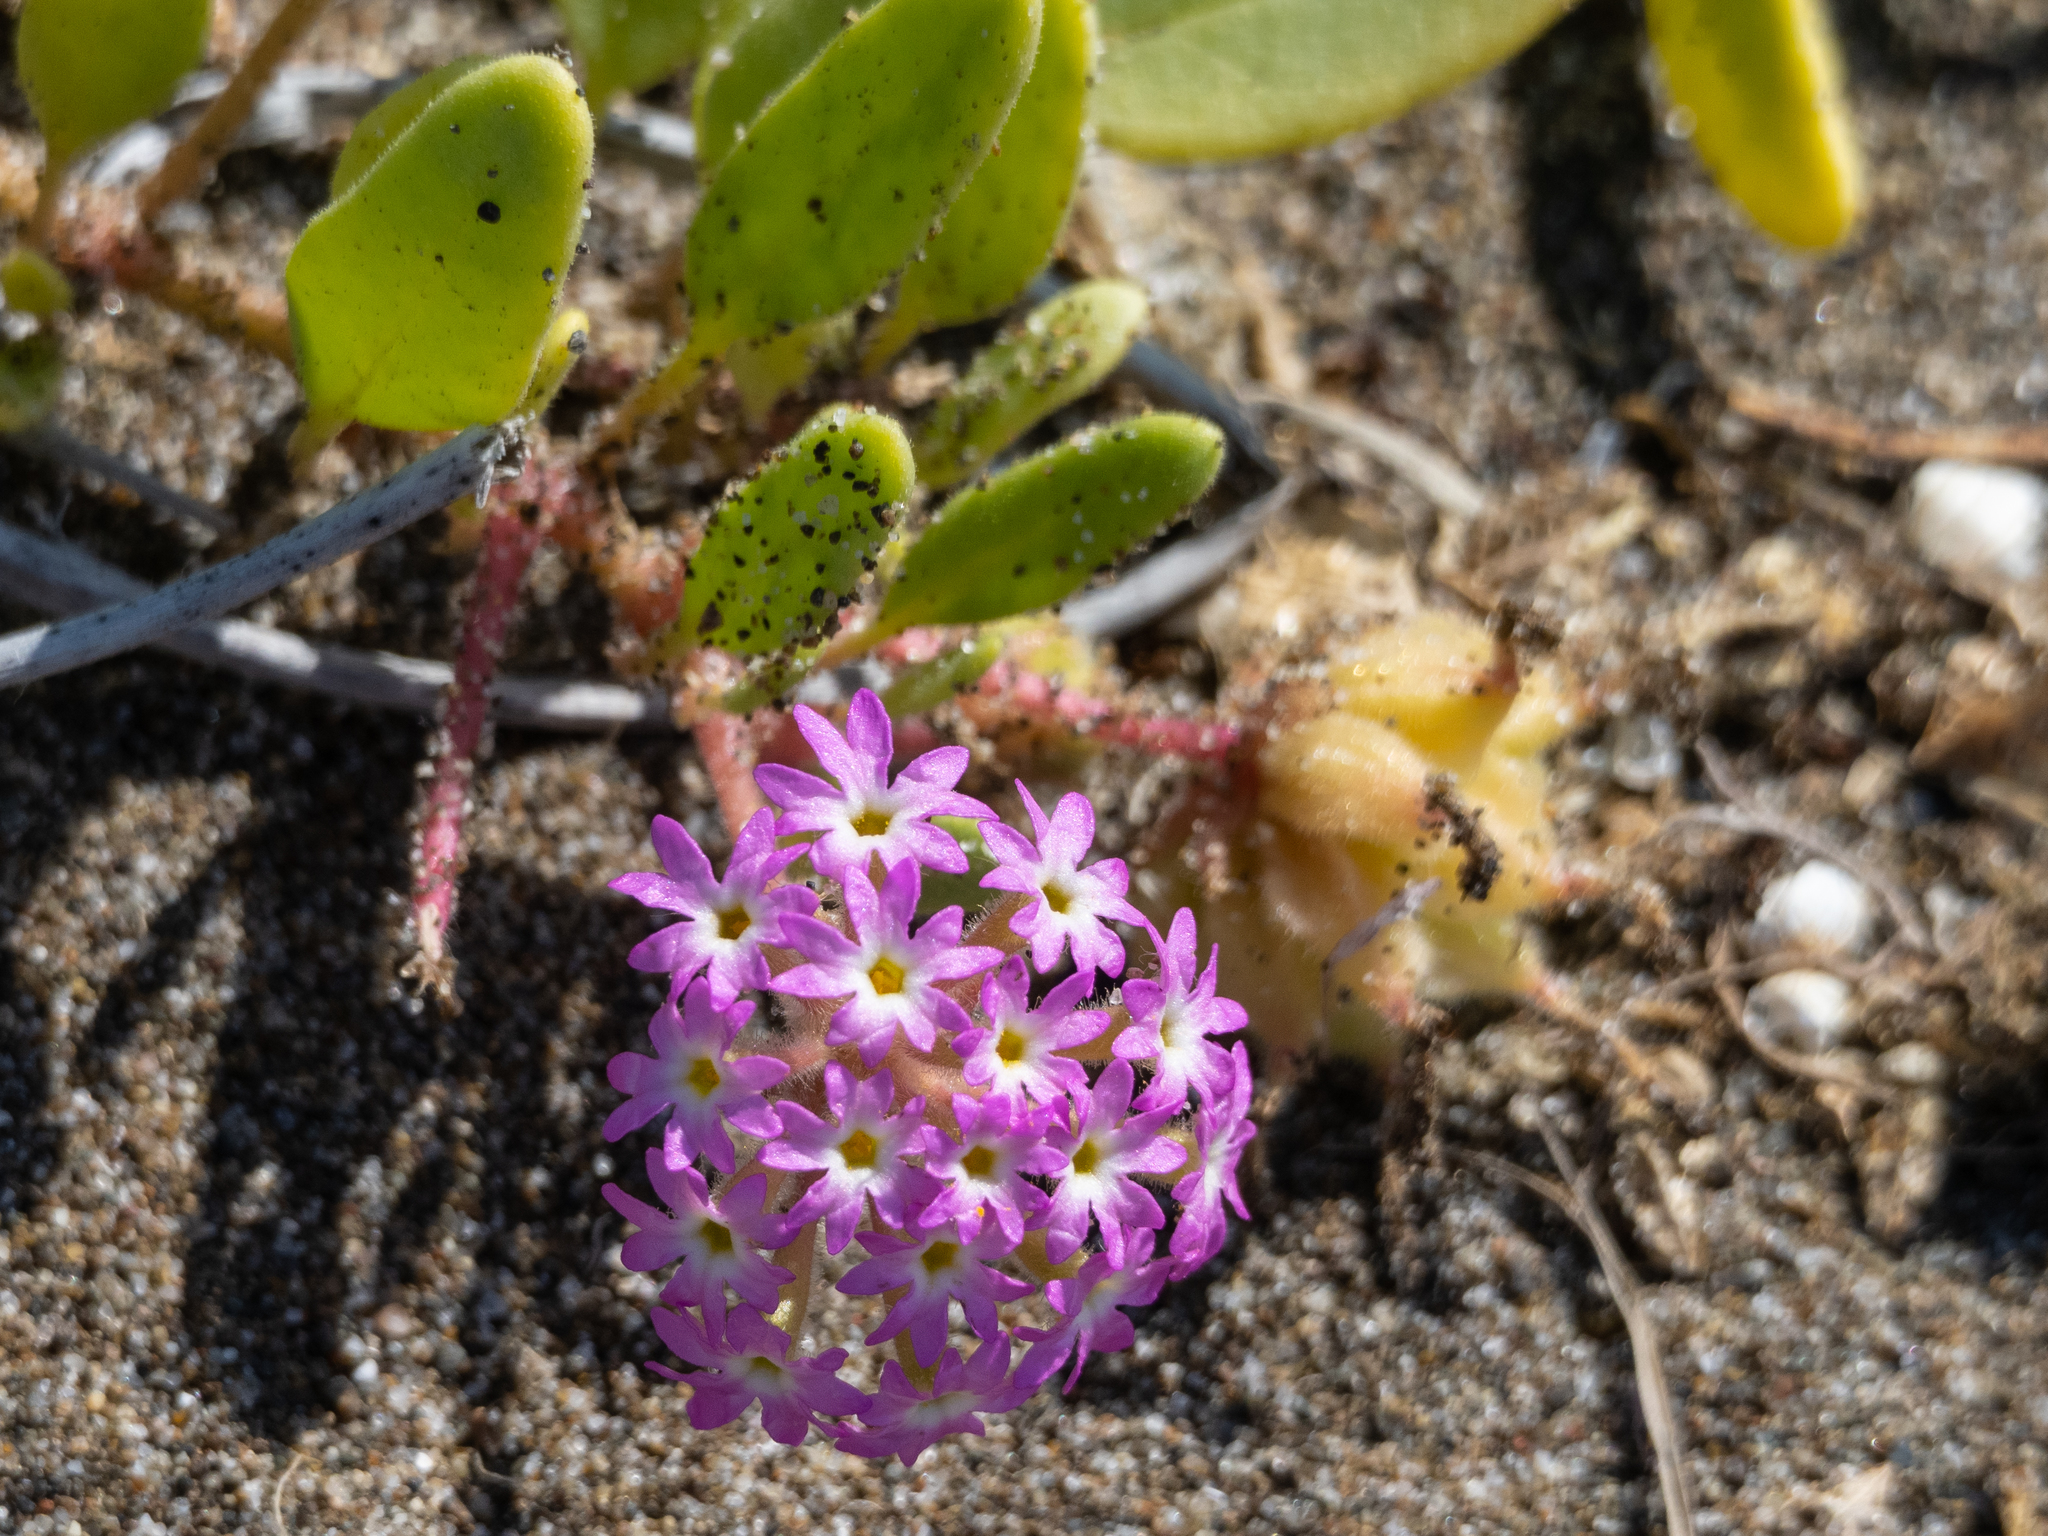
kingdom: Plantae
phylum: Tracheophyta
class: Magnoliopsida
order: Caryophyllales
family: Nyctaginaceae
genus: Abronia
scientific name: Abronia umbellata
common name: Sand-verbena
